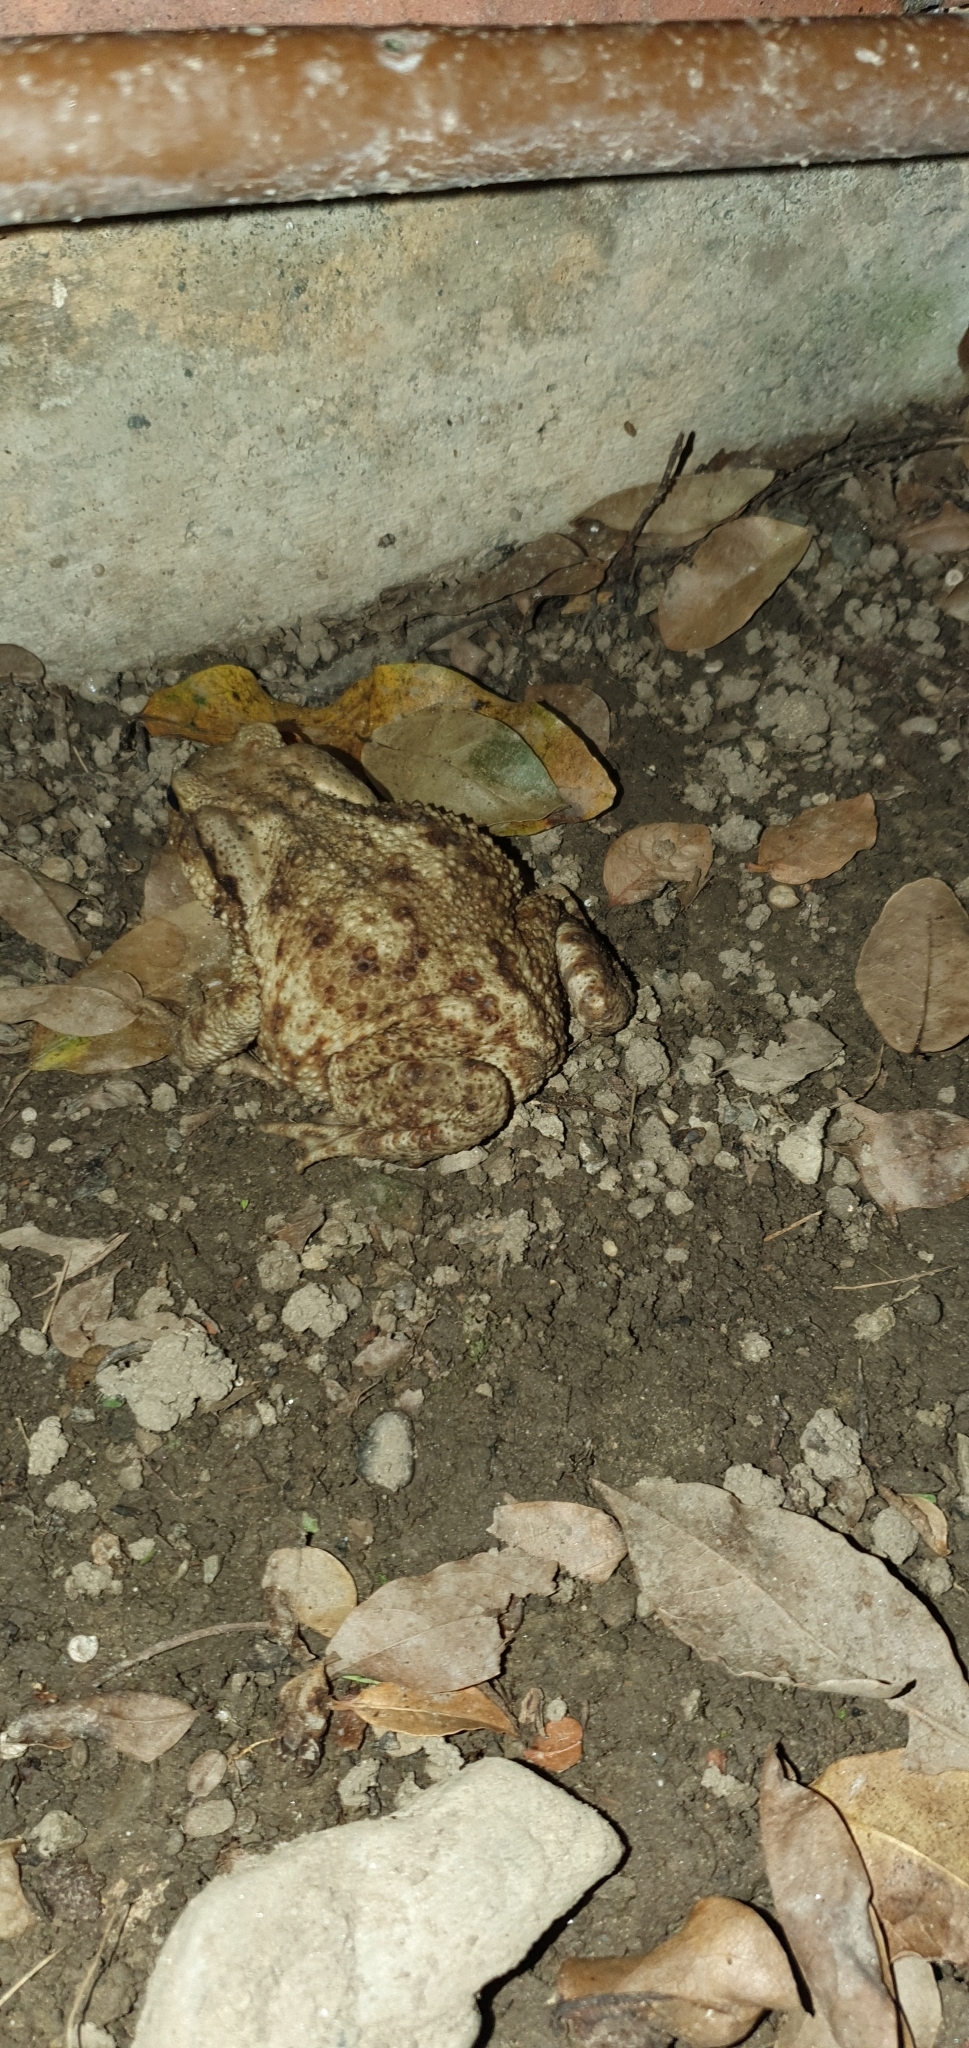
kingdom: Animalia
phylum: Chordata
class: Amphibia
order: Anura
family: Bufonidae
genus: Bufo
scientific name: Bufo bufo
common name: Common toad
